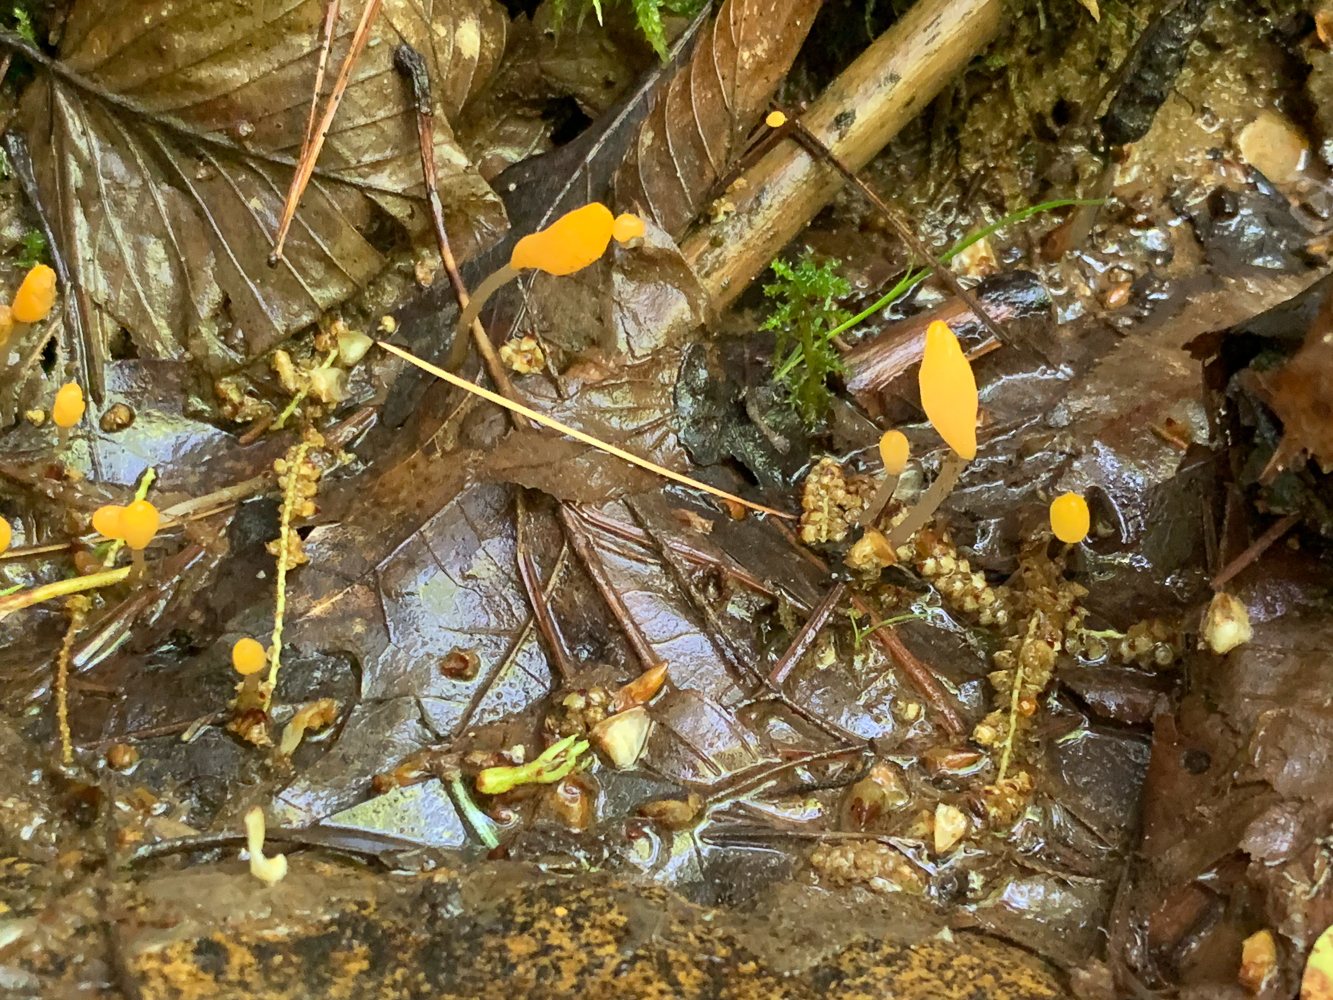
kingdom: Fungi
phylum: Ascomycota
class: Leotiomycetes
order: Helotiales
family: Sclerotiniaceae
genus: Mitrula
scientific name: Mitrula elegans
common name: Swamp beacon
